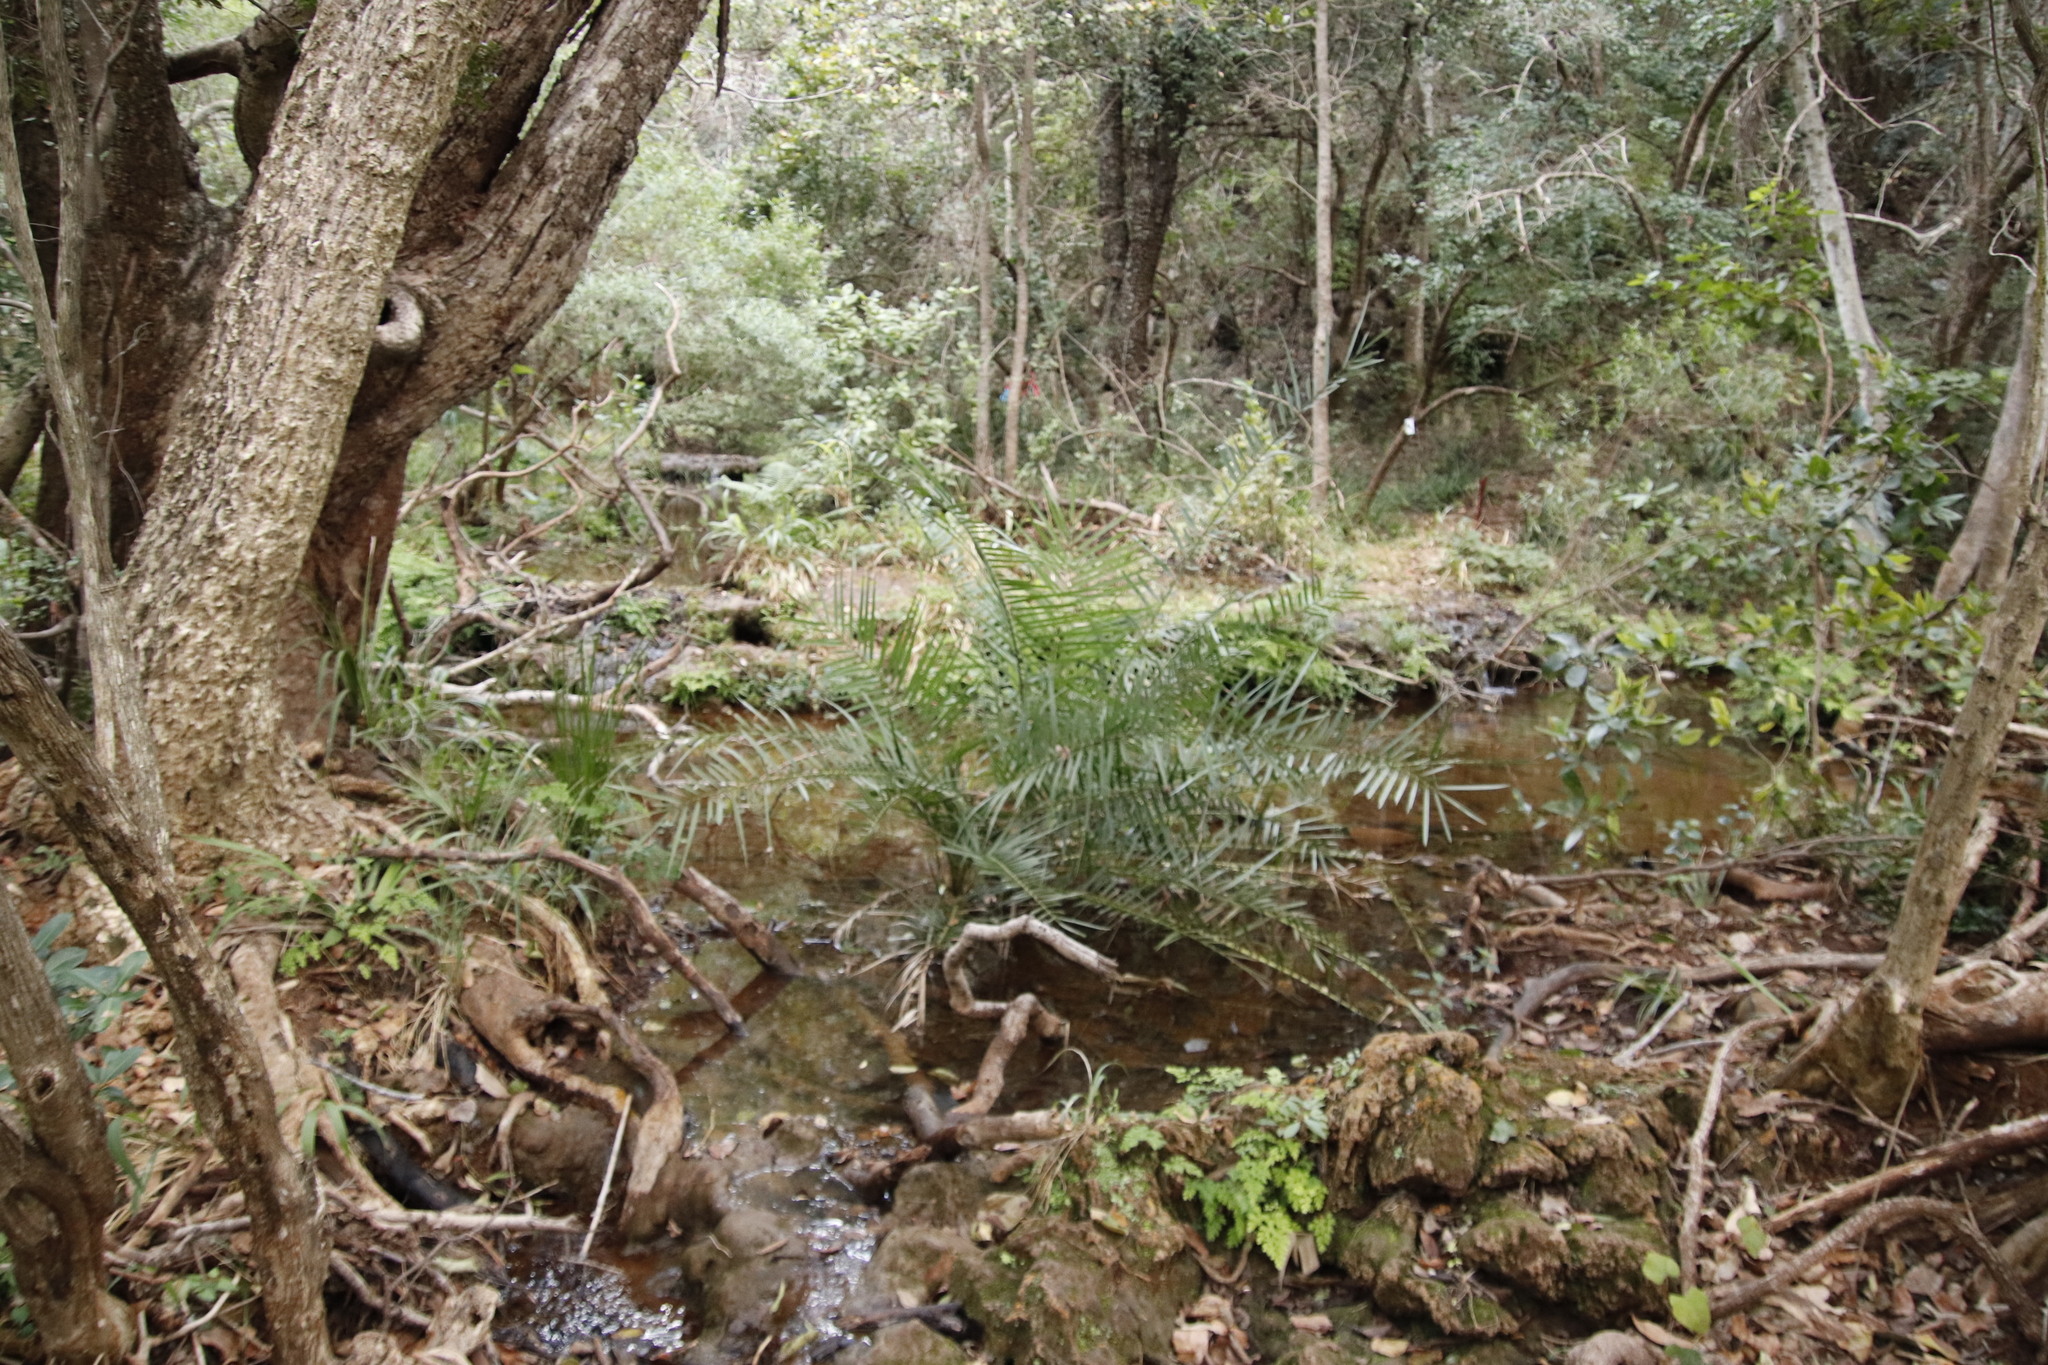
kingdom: Plantae
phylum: Tracheophyta
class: Liliopsida
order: Arecales
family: Arecaceae
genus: Phoenix
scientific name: Phoenix reclinata
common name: Senegal date palm
